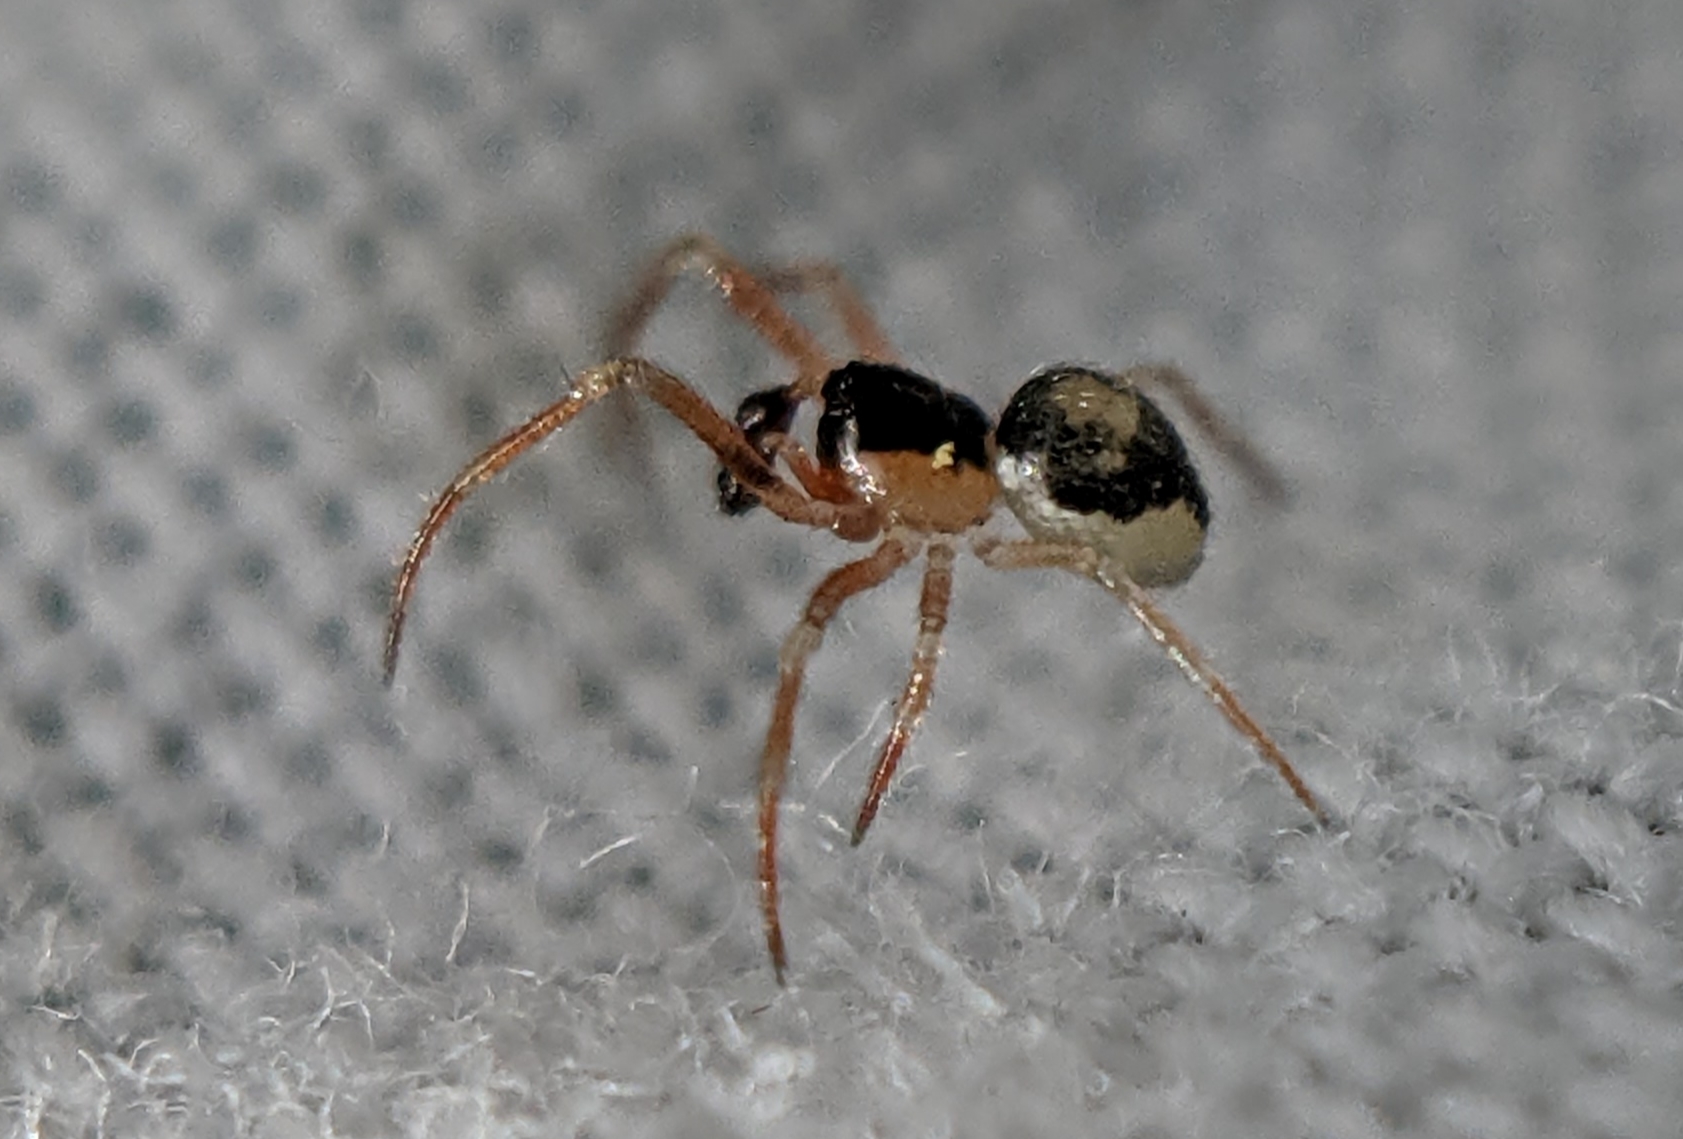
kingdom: Animalia
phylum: Arthropoda
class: Arachnida
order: Araneae
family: Theridiidae
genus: Paidiscura
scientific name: Paidiscura pallens
